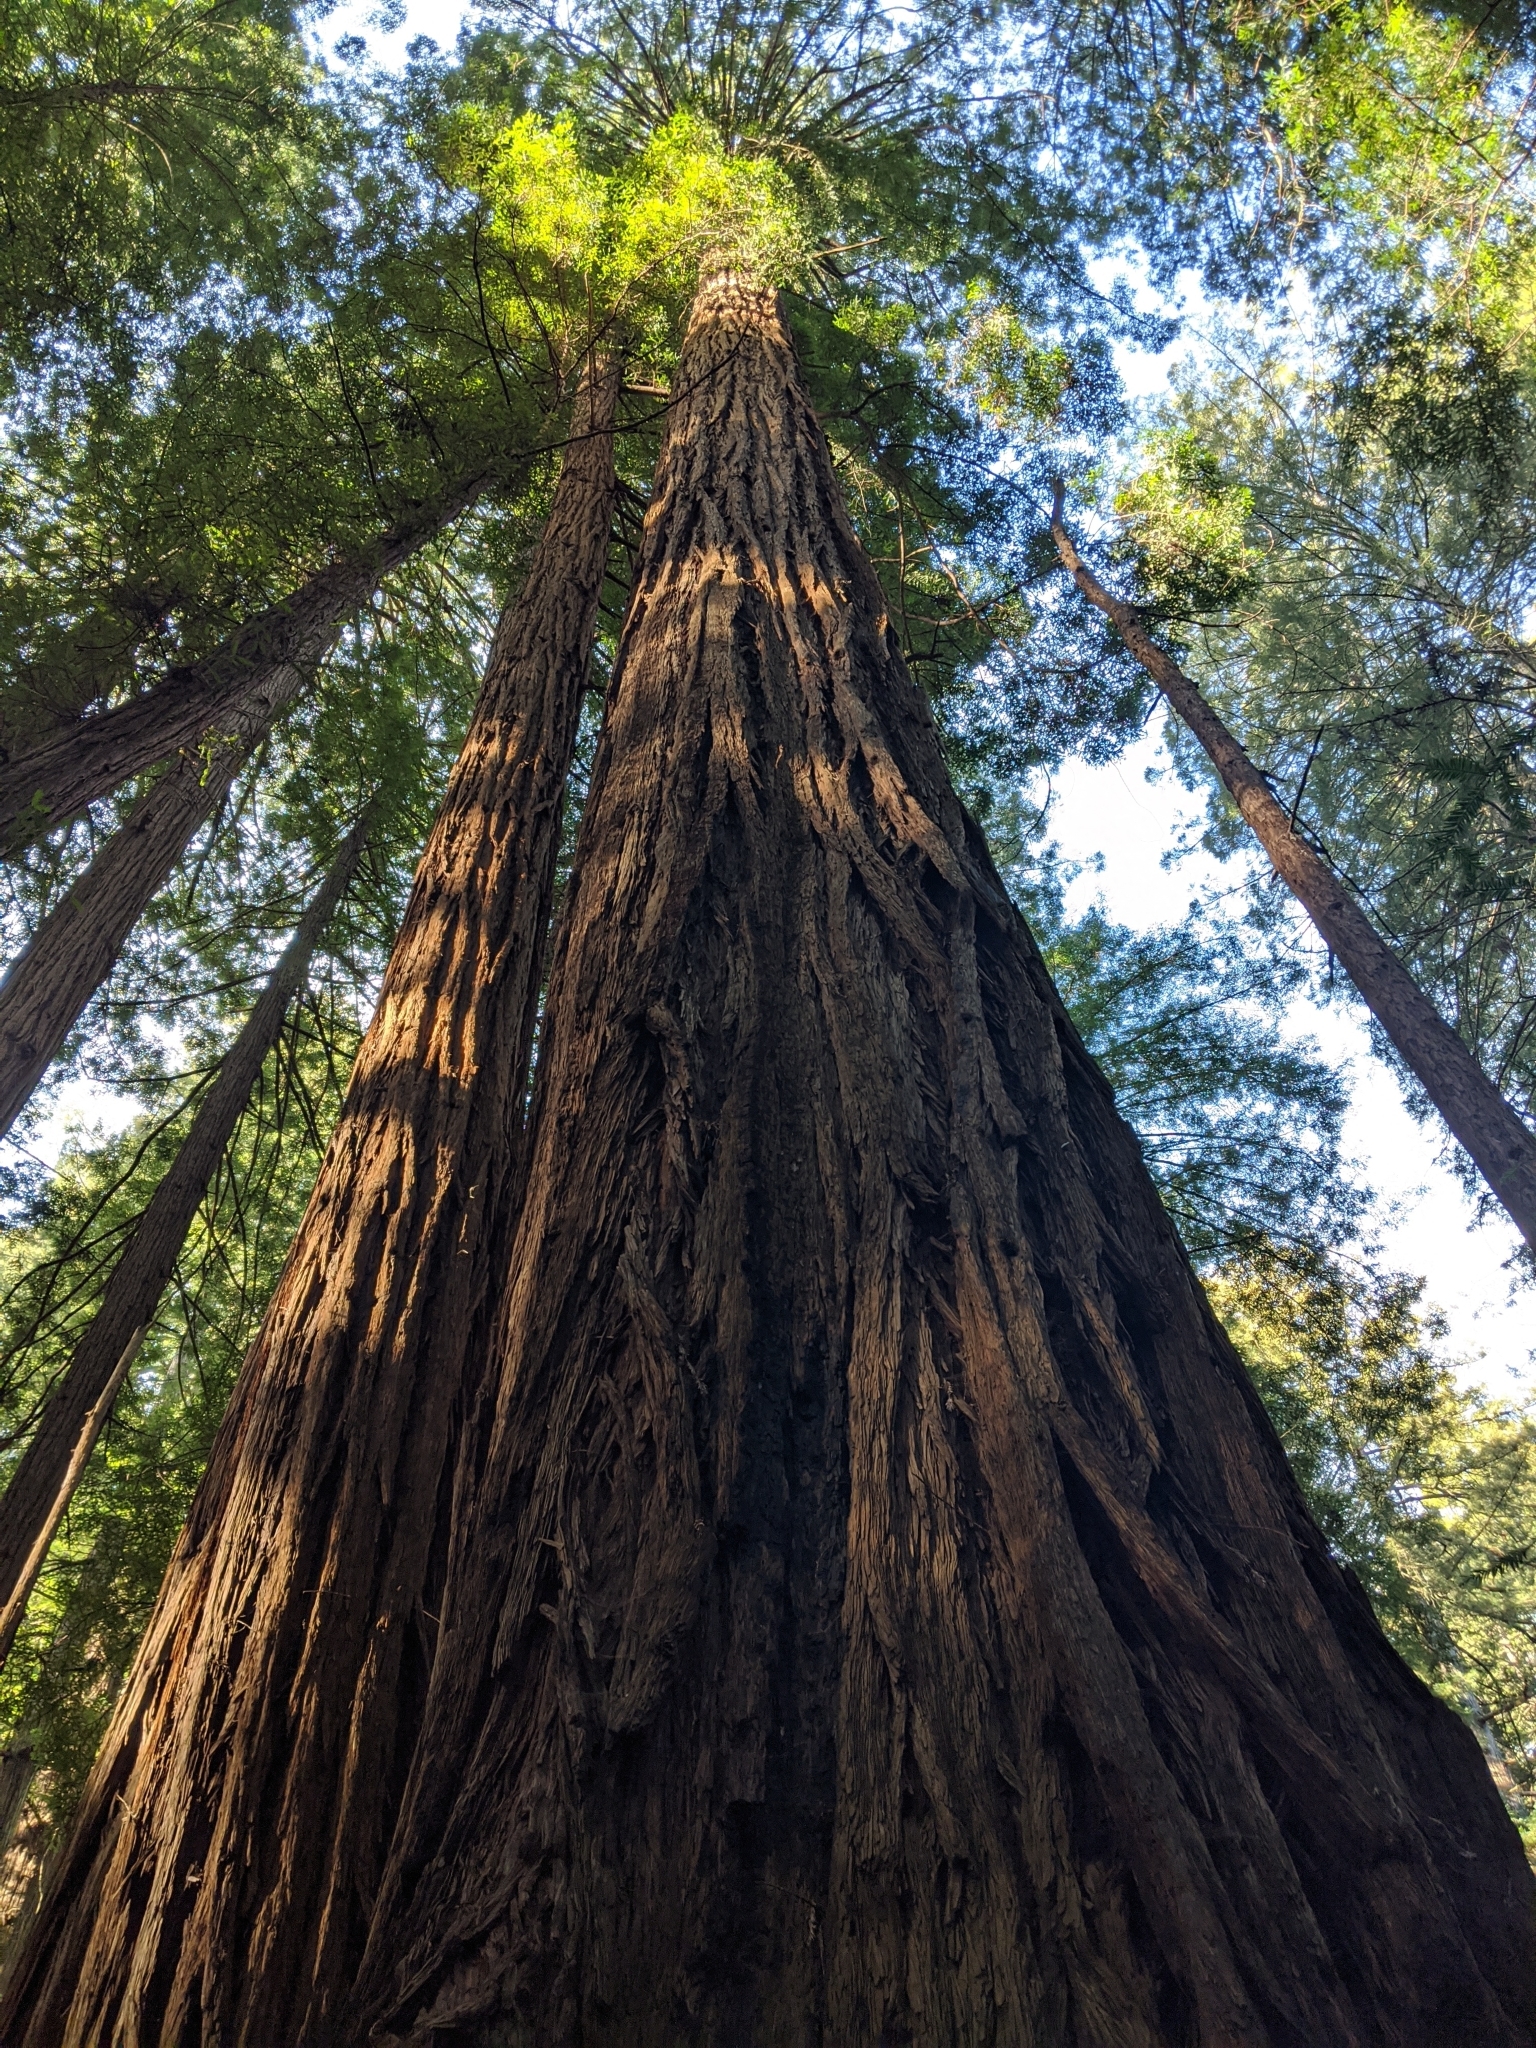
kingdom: Plantae
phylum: Tracheophyta
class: Pinopsida
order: Pinales
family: Cupressaceae
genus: Sequoia
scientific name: Sequoia sempervirens
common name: Coast redwood
